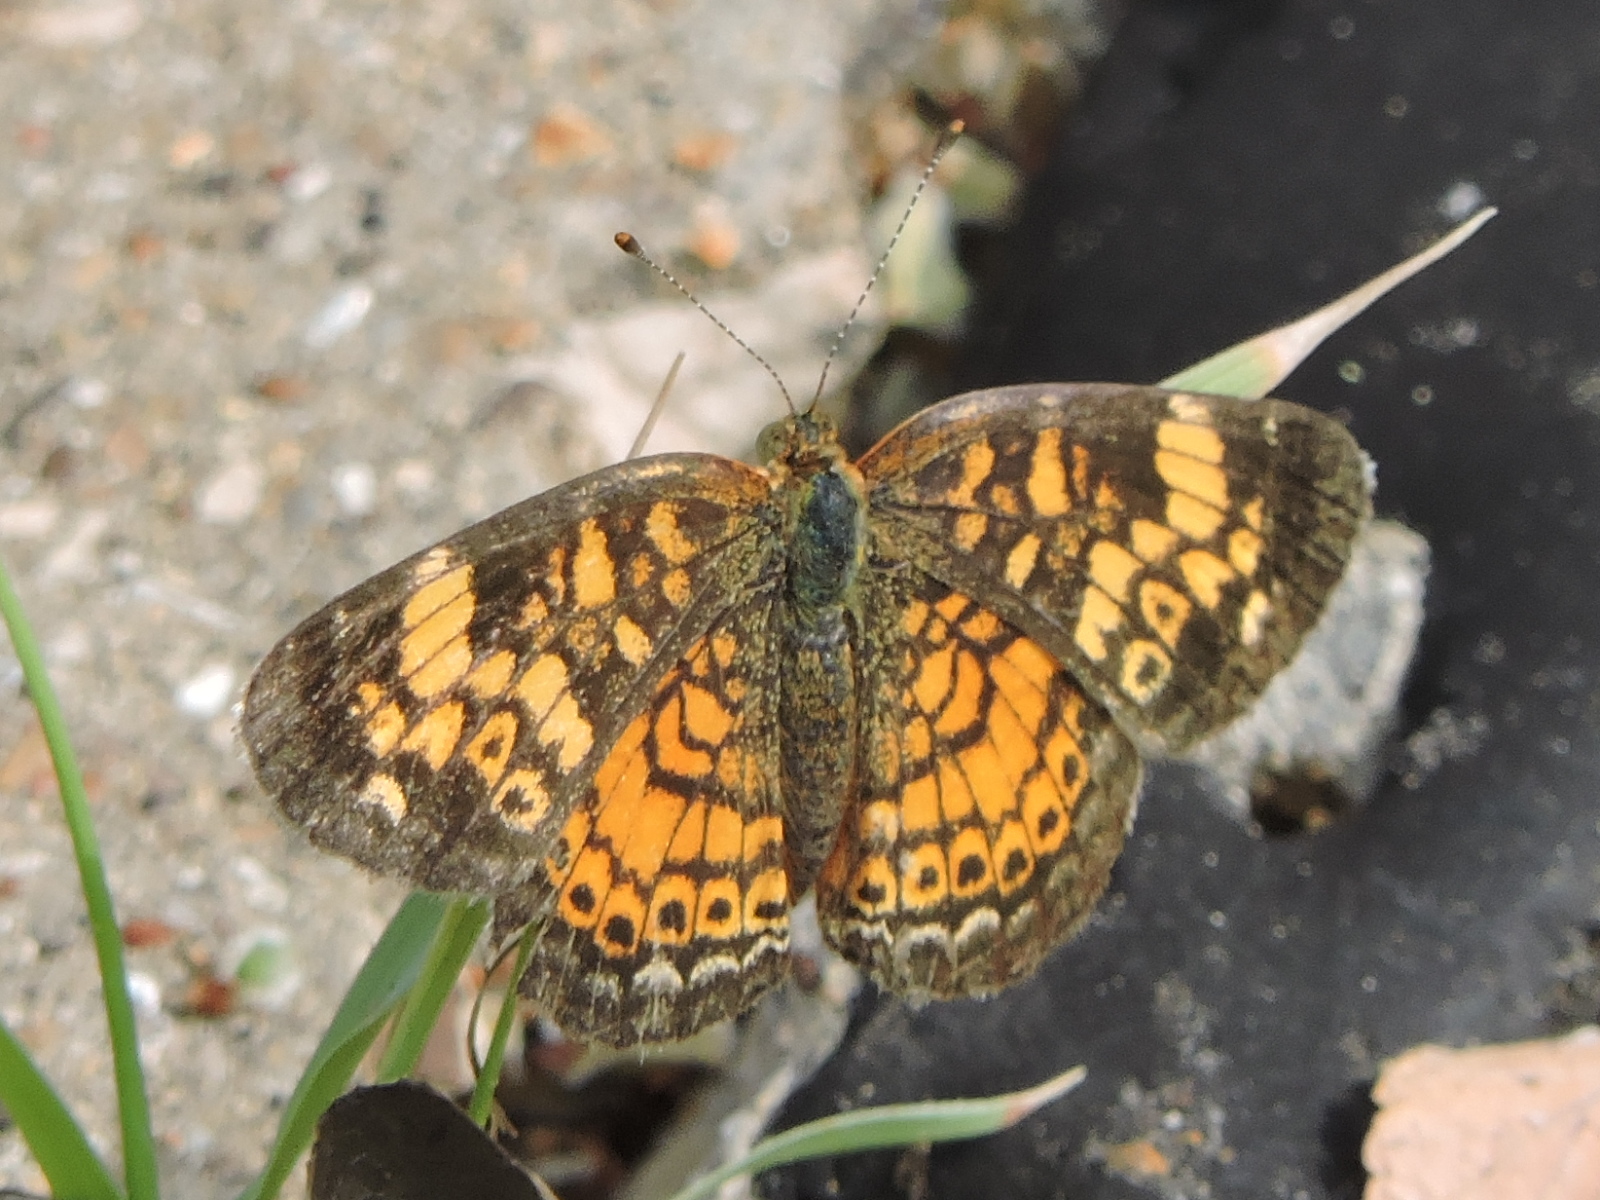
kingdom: Animalia
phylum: Arthropoda
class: Insecta
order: Lepidoptera
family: Nymphalidae
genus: Phyciodes
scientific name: Phyciodes tharos
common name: Pearl crescent
